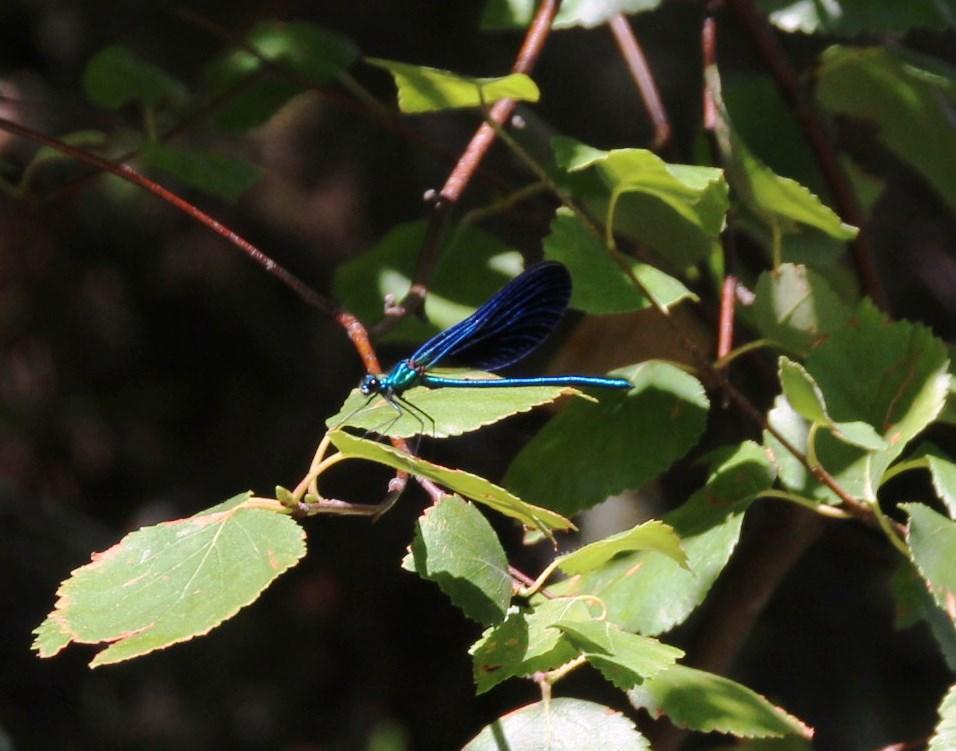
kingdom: Animalia
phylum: Arthropoda
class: Insecta
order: Odonata
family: Calopterygidae
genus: Calopteryx
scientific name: Calopteryx virgo
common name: Beautiful demoiselle
